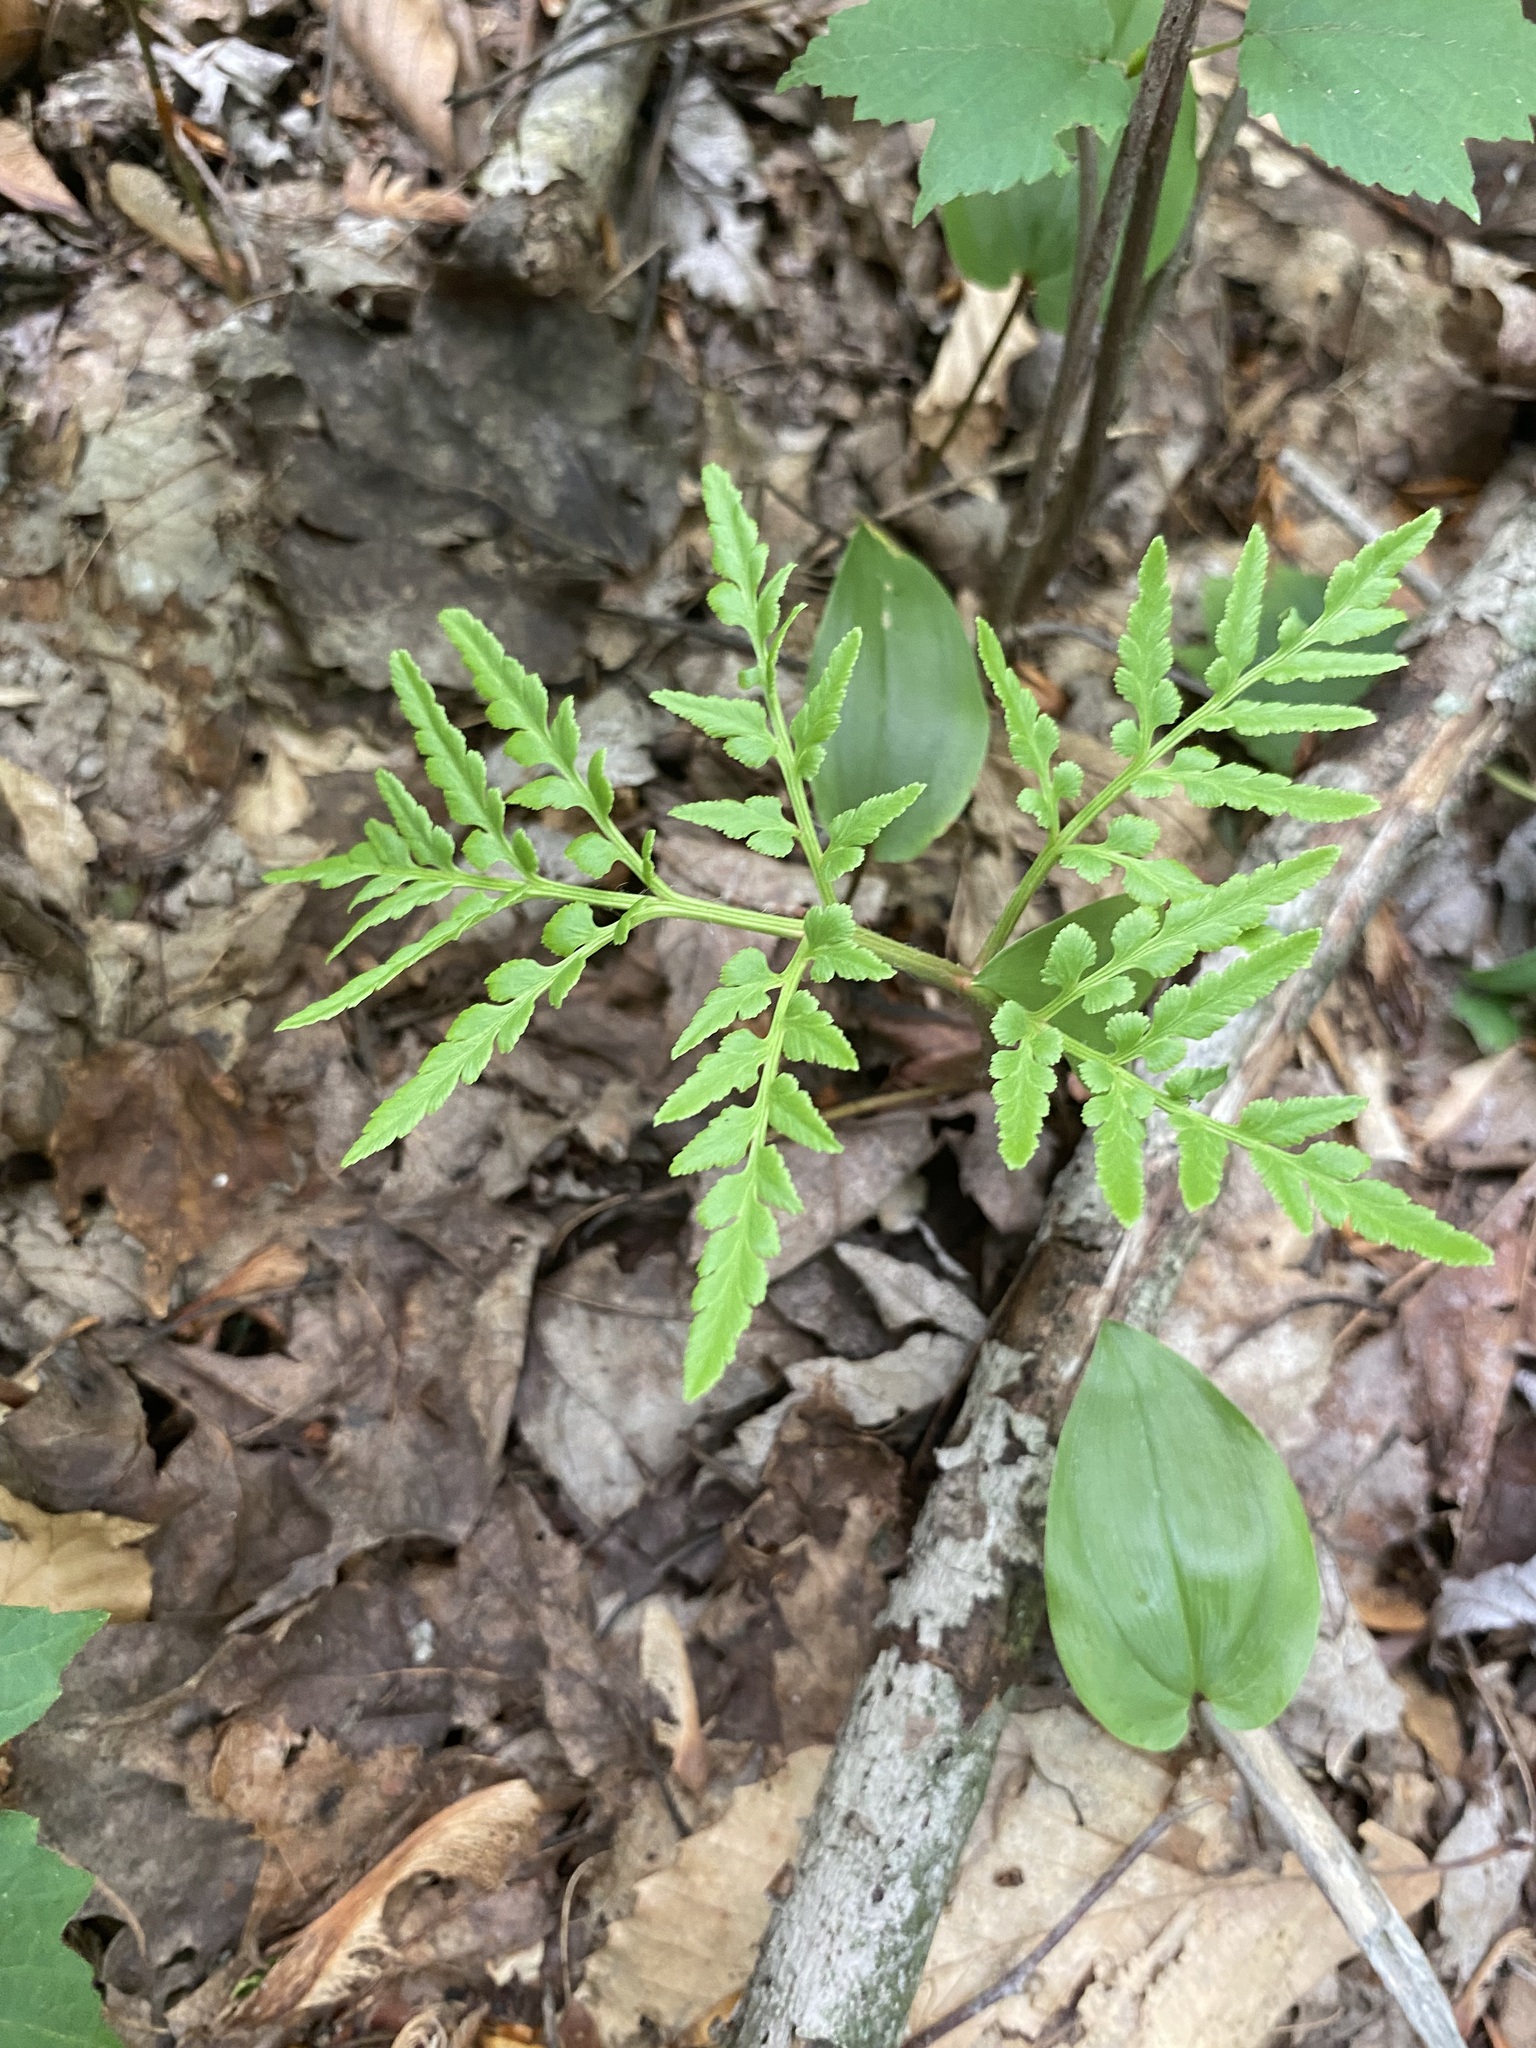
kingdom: Plantae
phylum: Tracheophyta
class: Polypodiopsida
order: Ophioglossales
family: Ophioglossaceae
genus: Sceptridium
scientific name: Sceptridium dissectum
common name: Cut-leaved grapefern
